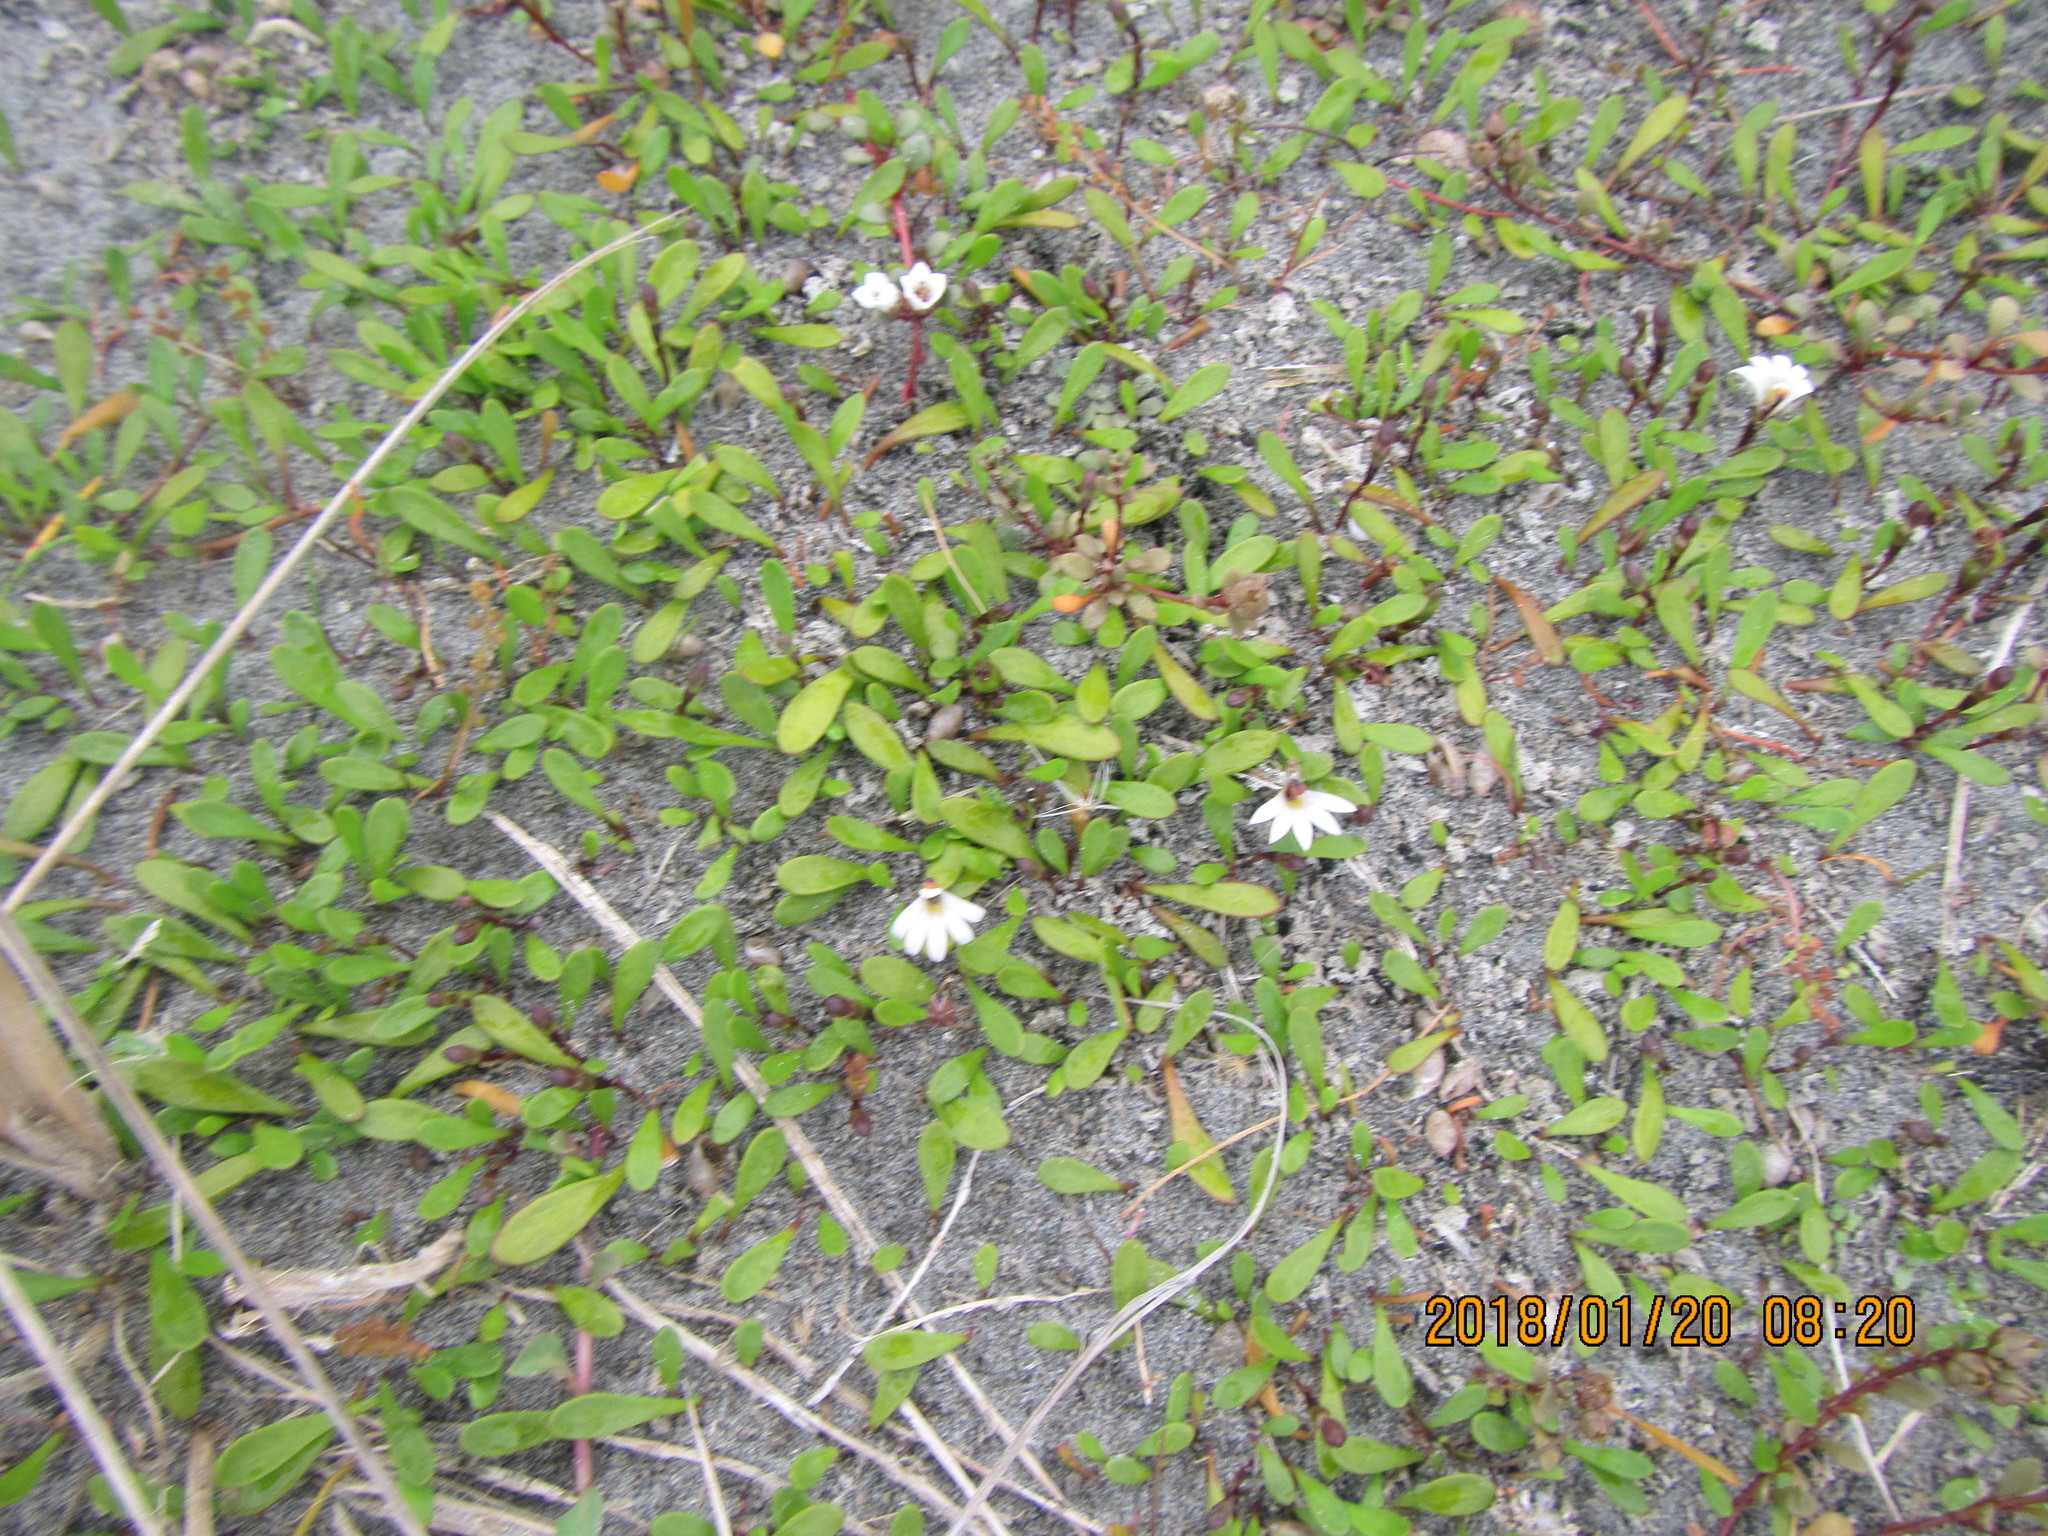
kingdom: Plantae
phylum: Tracheophyta
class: Magnoliopsida
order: Asterales
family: Goodeniaceae
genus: Goodenia
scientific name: Goodenia radicans
